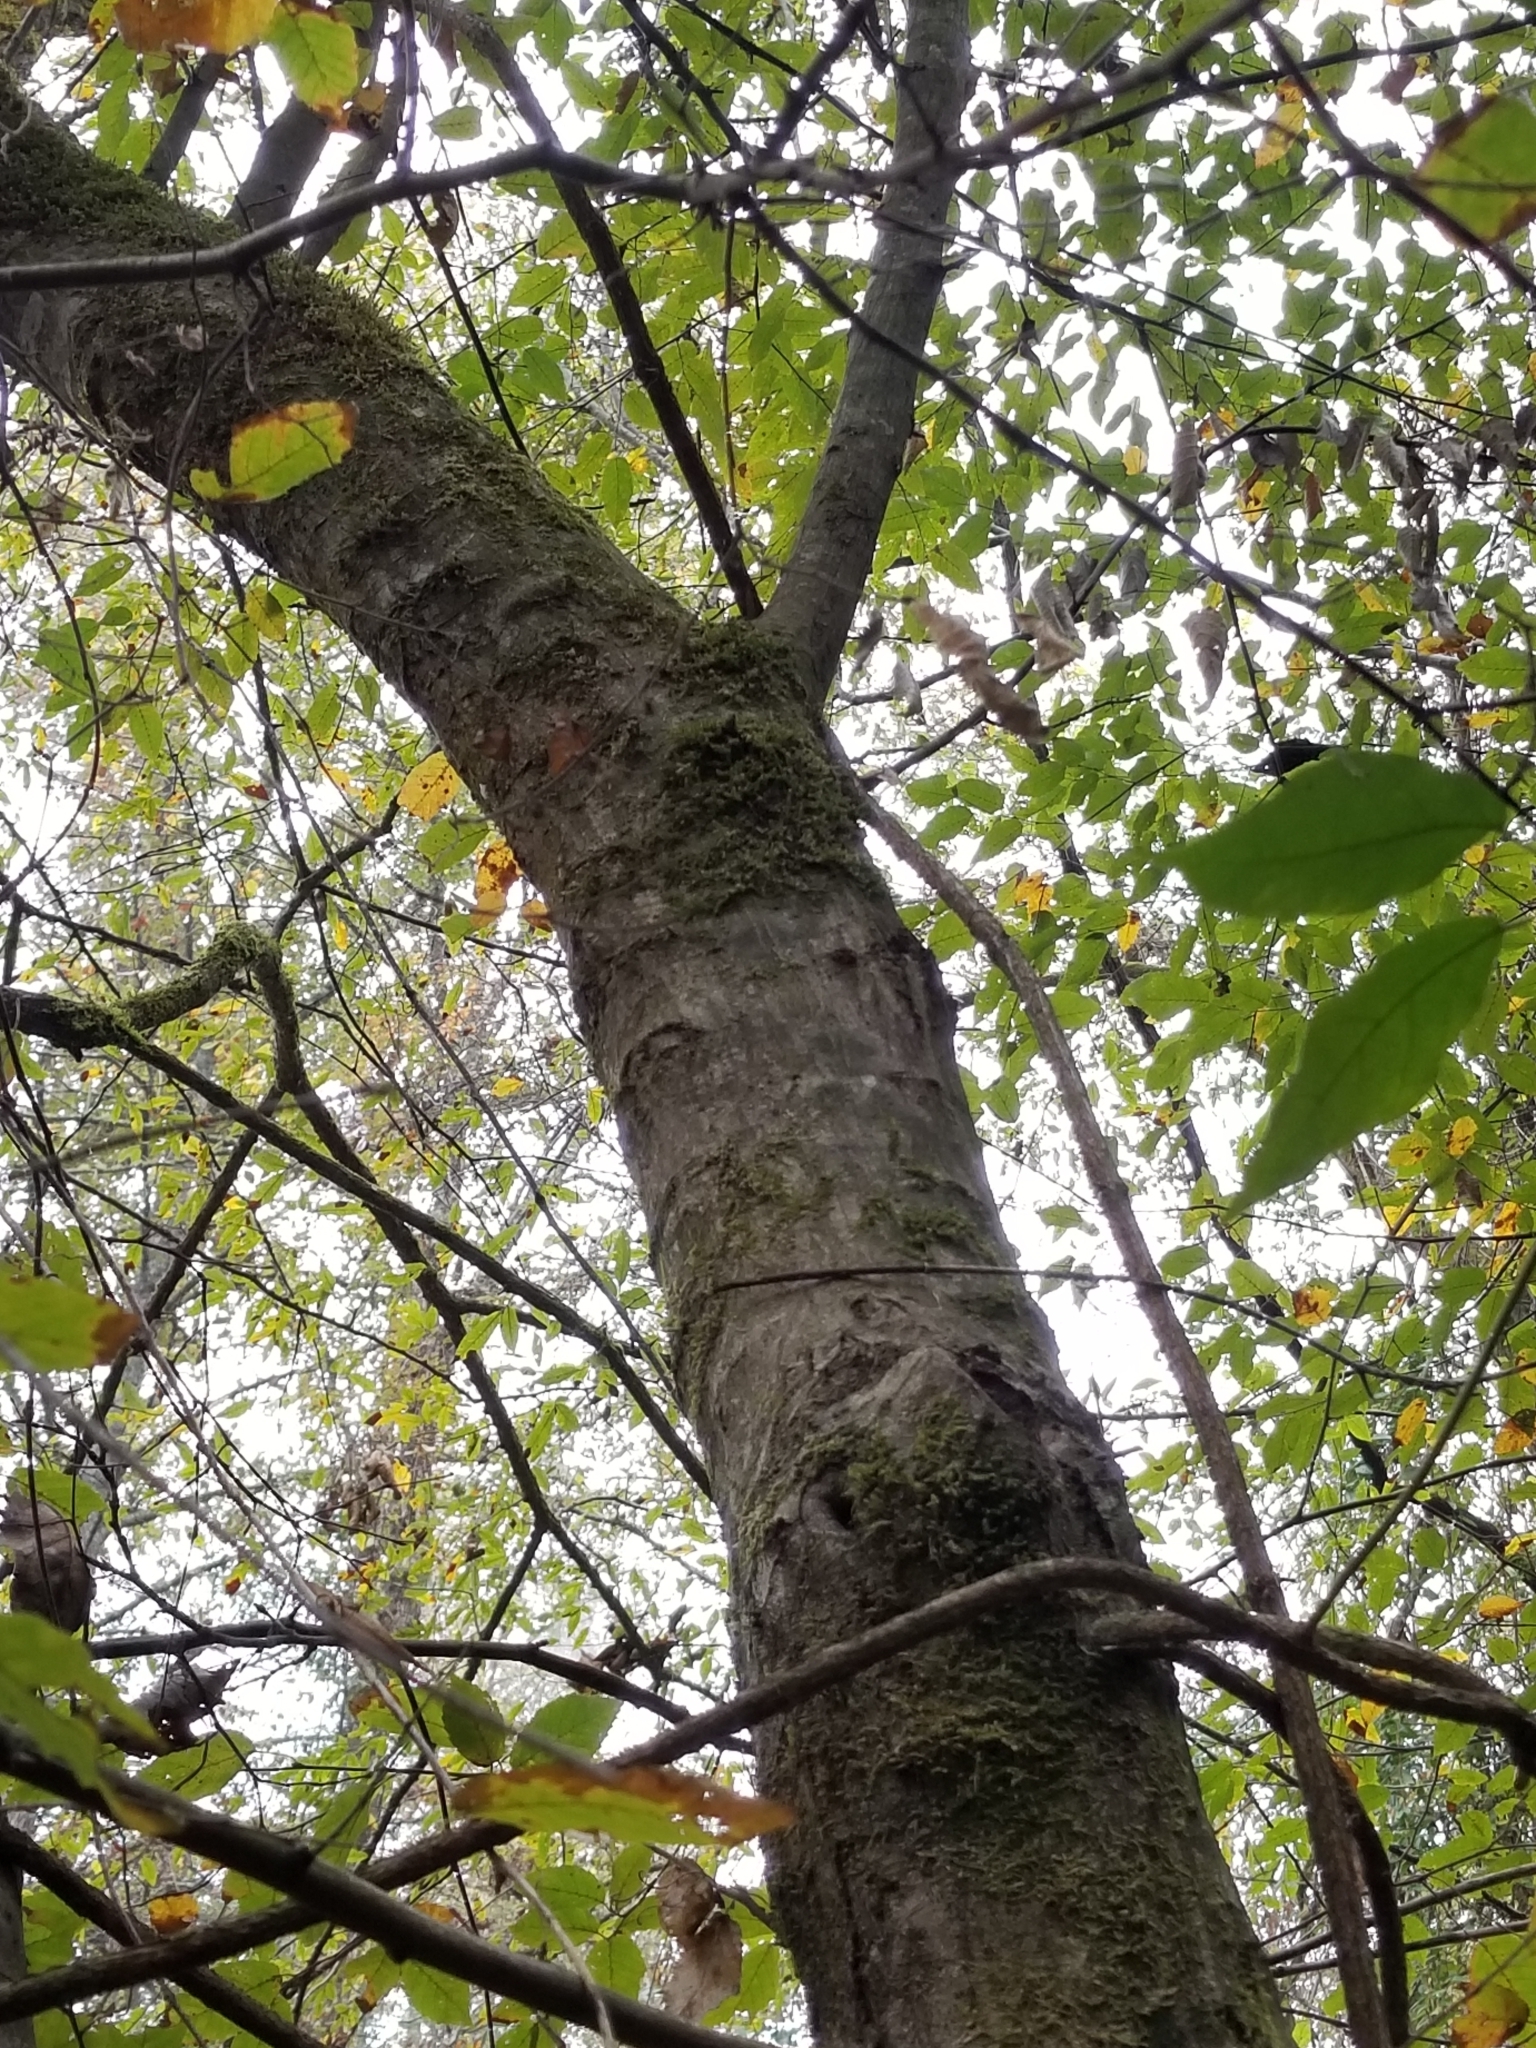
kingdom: Plantae
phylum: Tracheophyta
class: Magnoliopsida
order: Fagales
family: Betulaceae
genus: Carpinus
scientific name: Carpinus caroliniana
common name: American hornbeam
